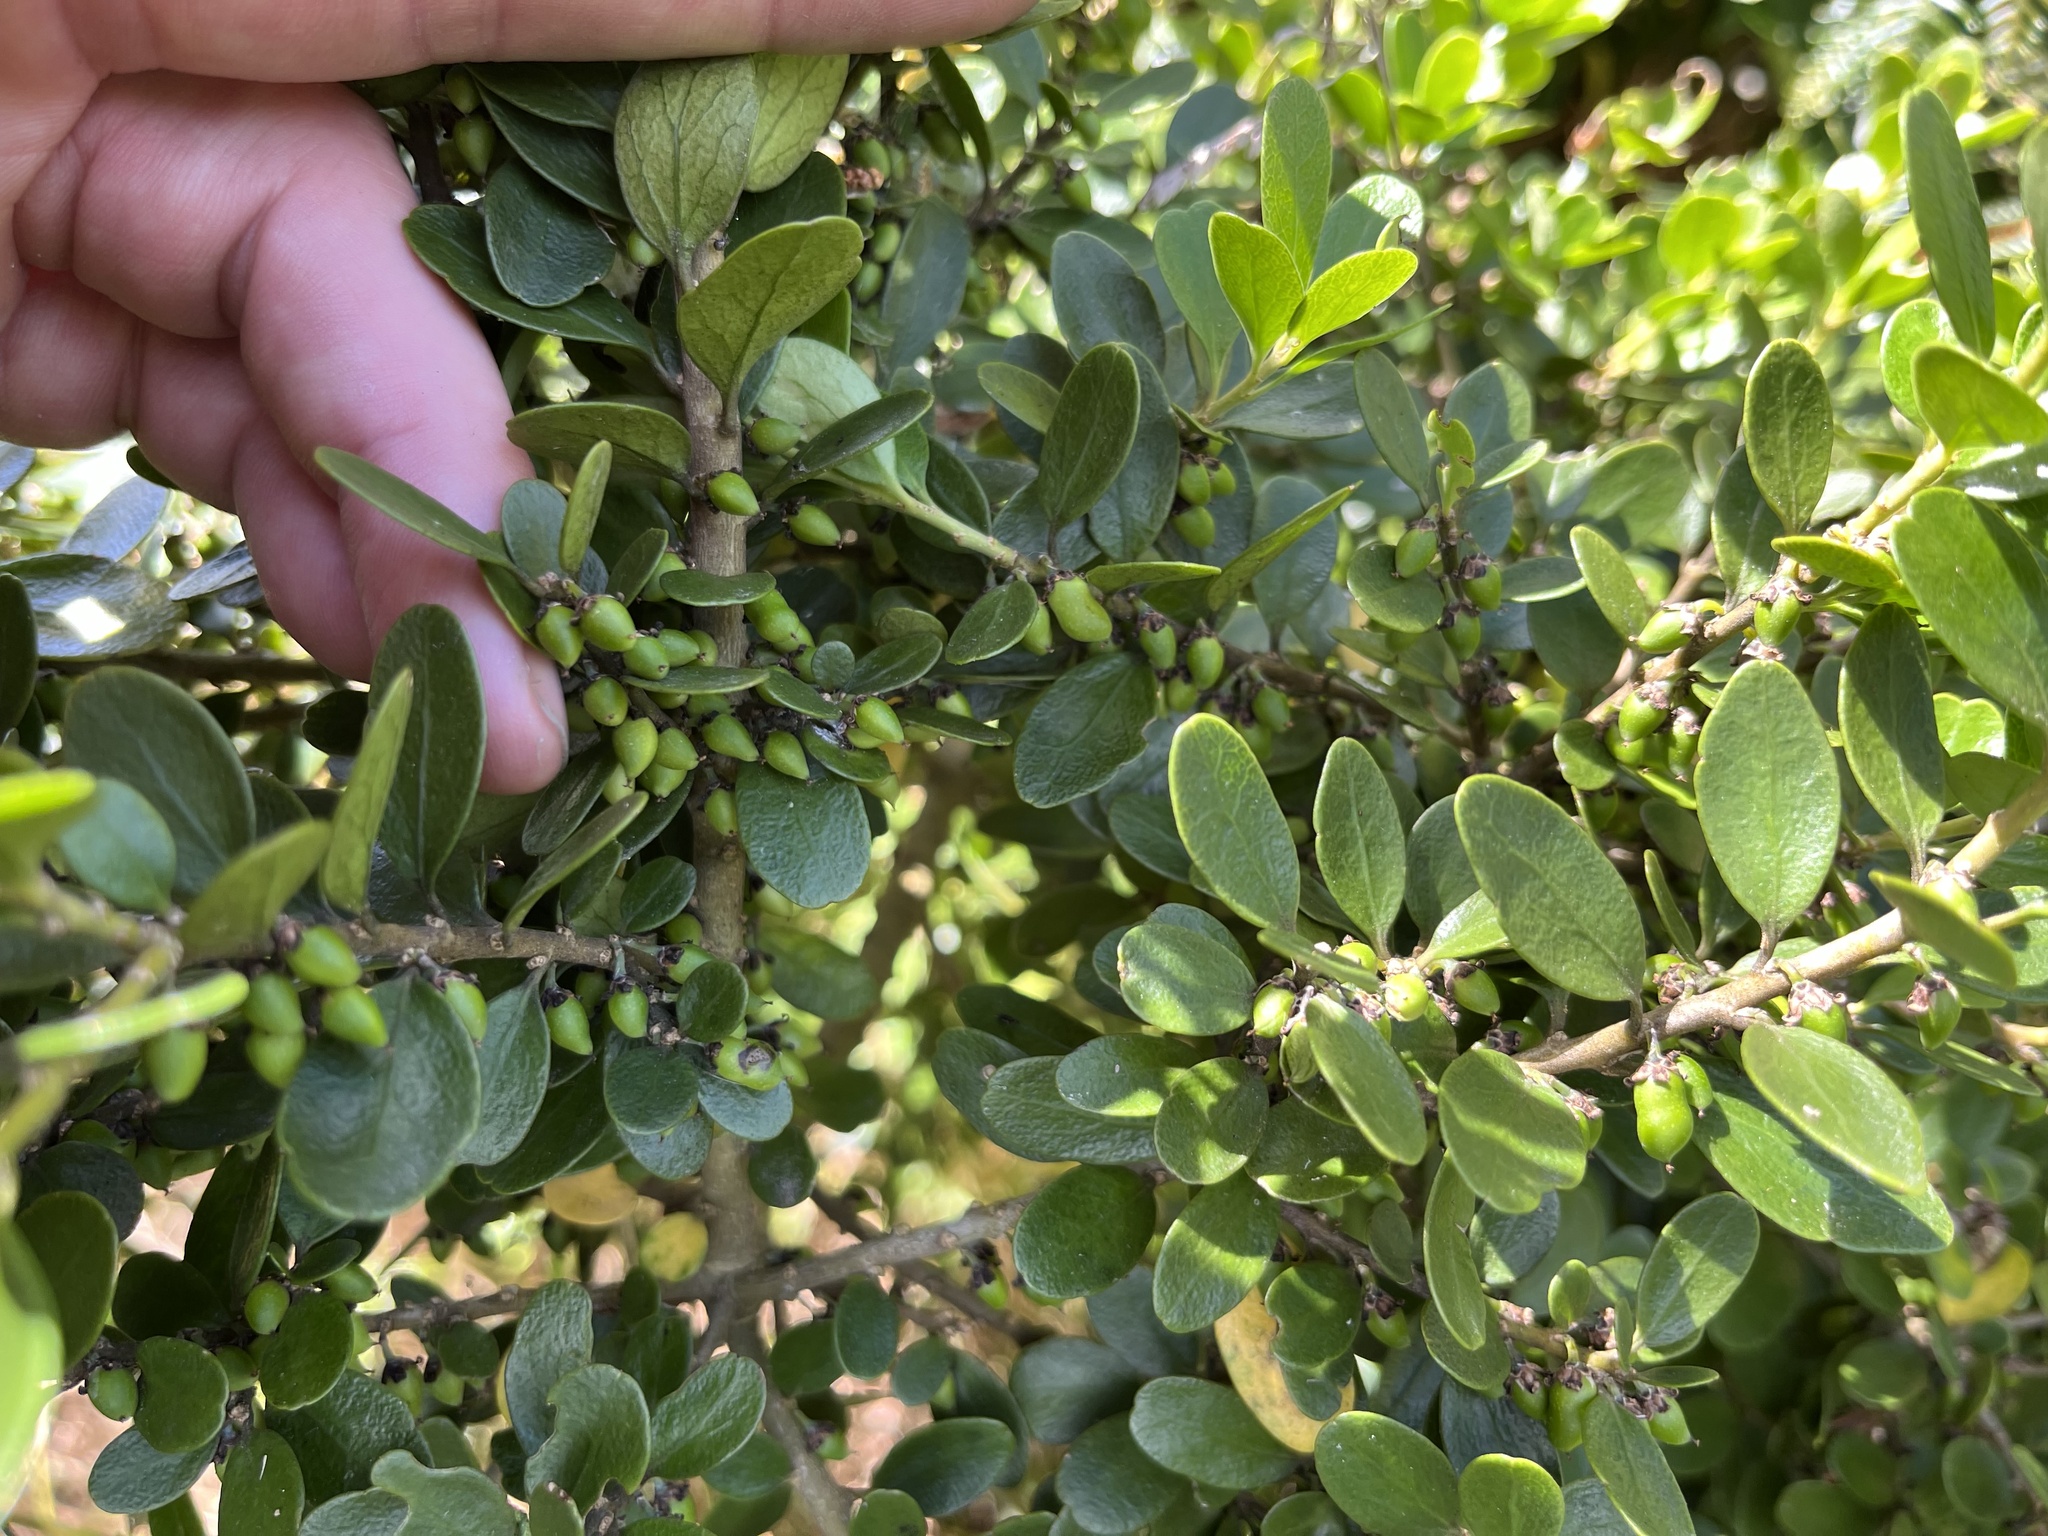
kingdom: Plantae
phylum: Tracheophyta
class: Magnoliopsida
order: Malpighiales
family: Violaceae
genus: Melicytus
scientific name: Melicytus orarius
